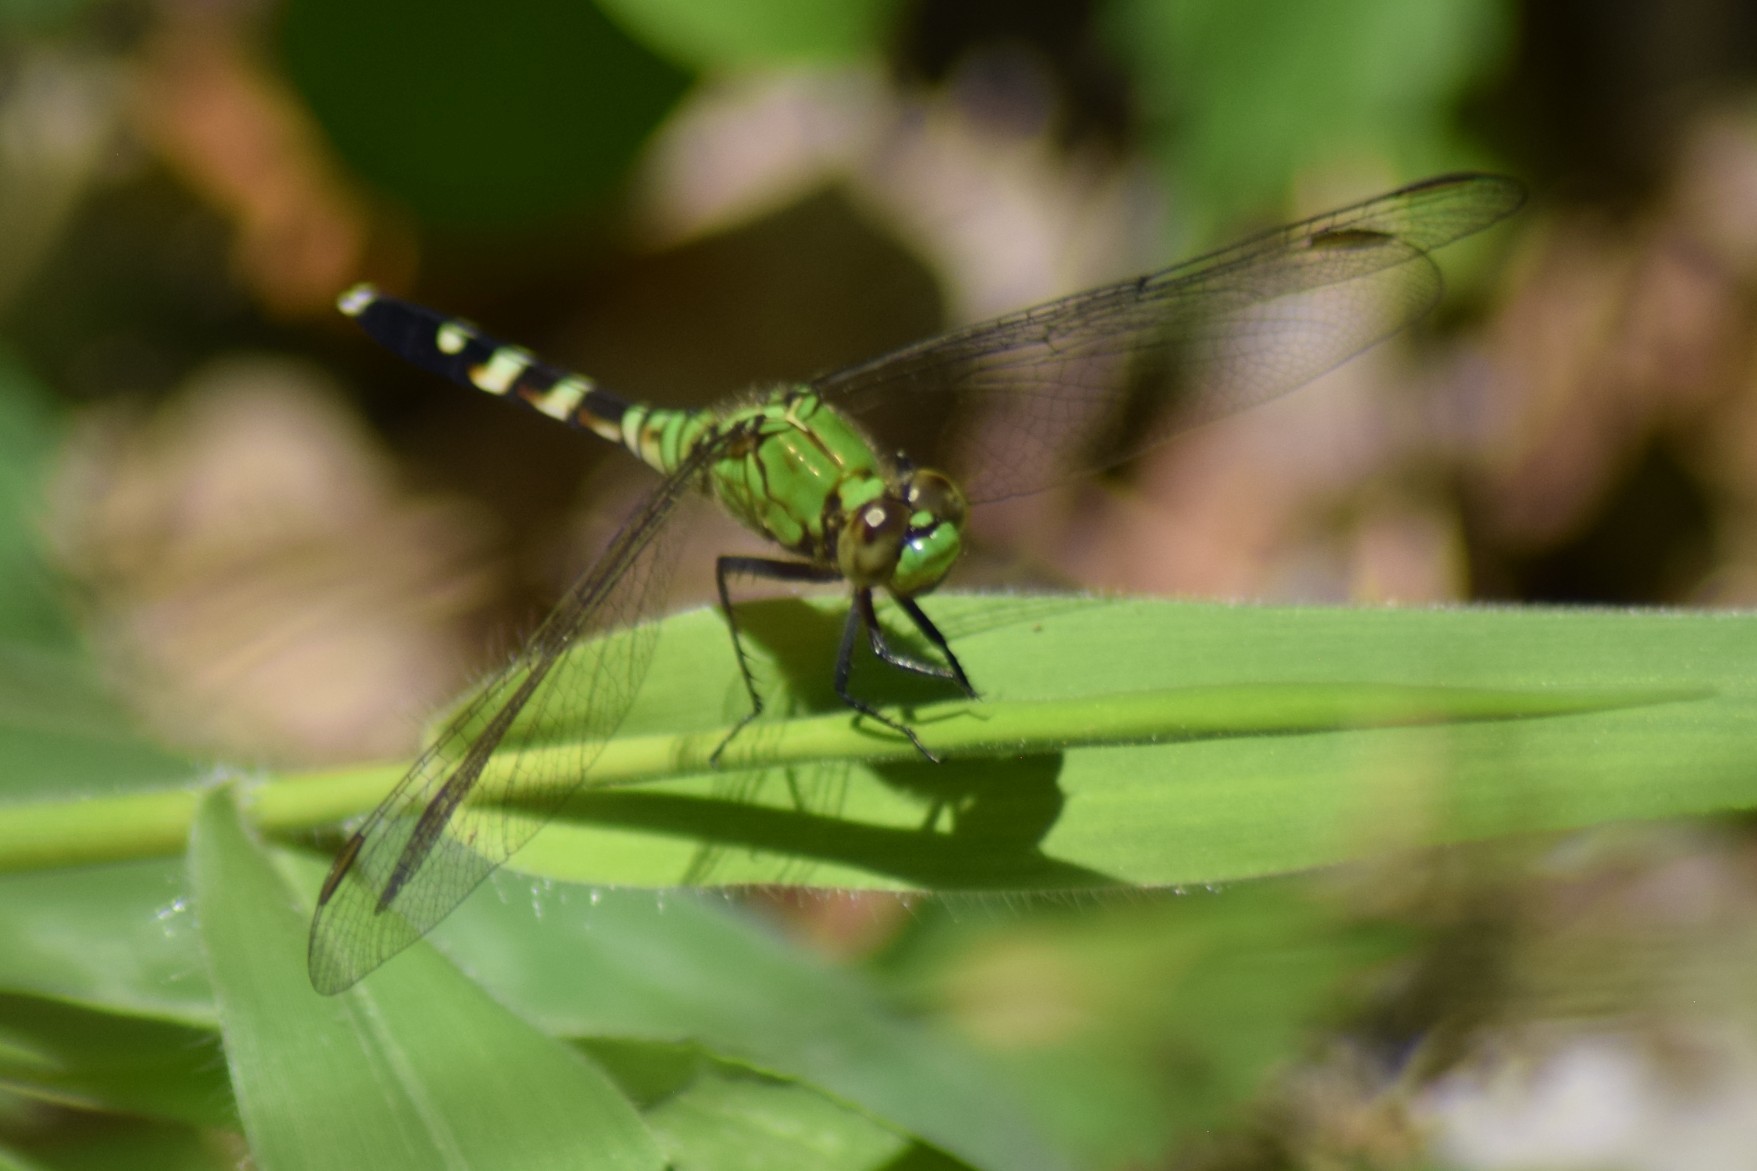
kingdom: Animalia
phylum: Arthropoda
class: Insecta
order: Odonata
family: Libellulidae
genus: Erythemis
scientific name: Erythemis simplicicollis
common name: Eastern pondhawk
